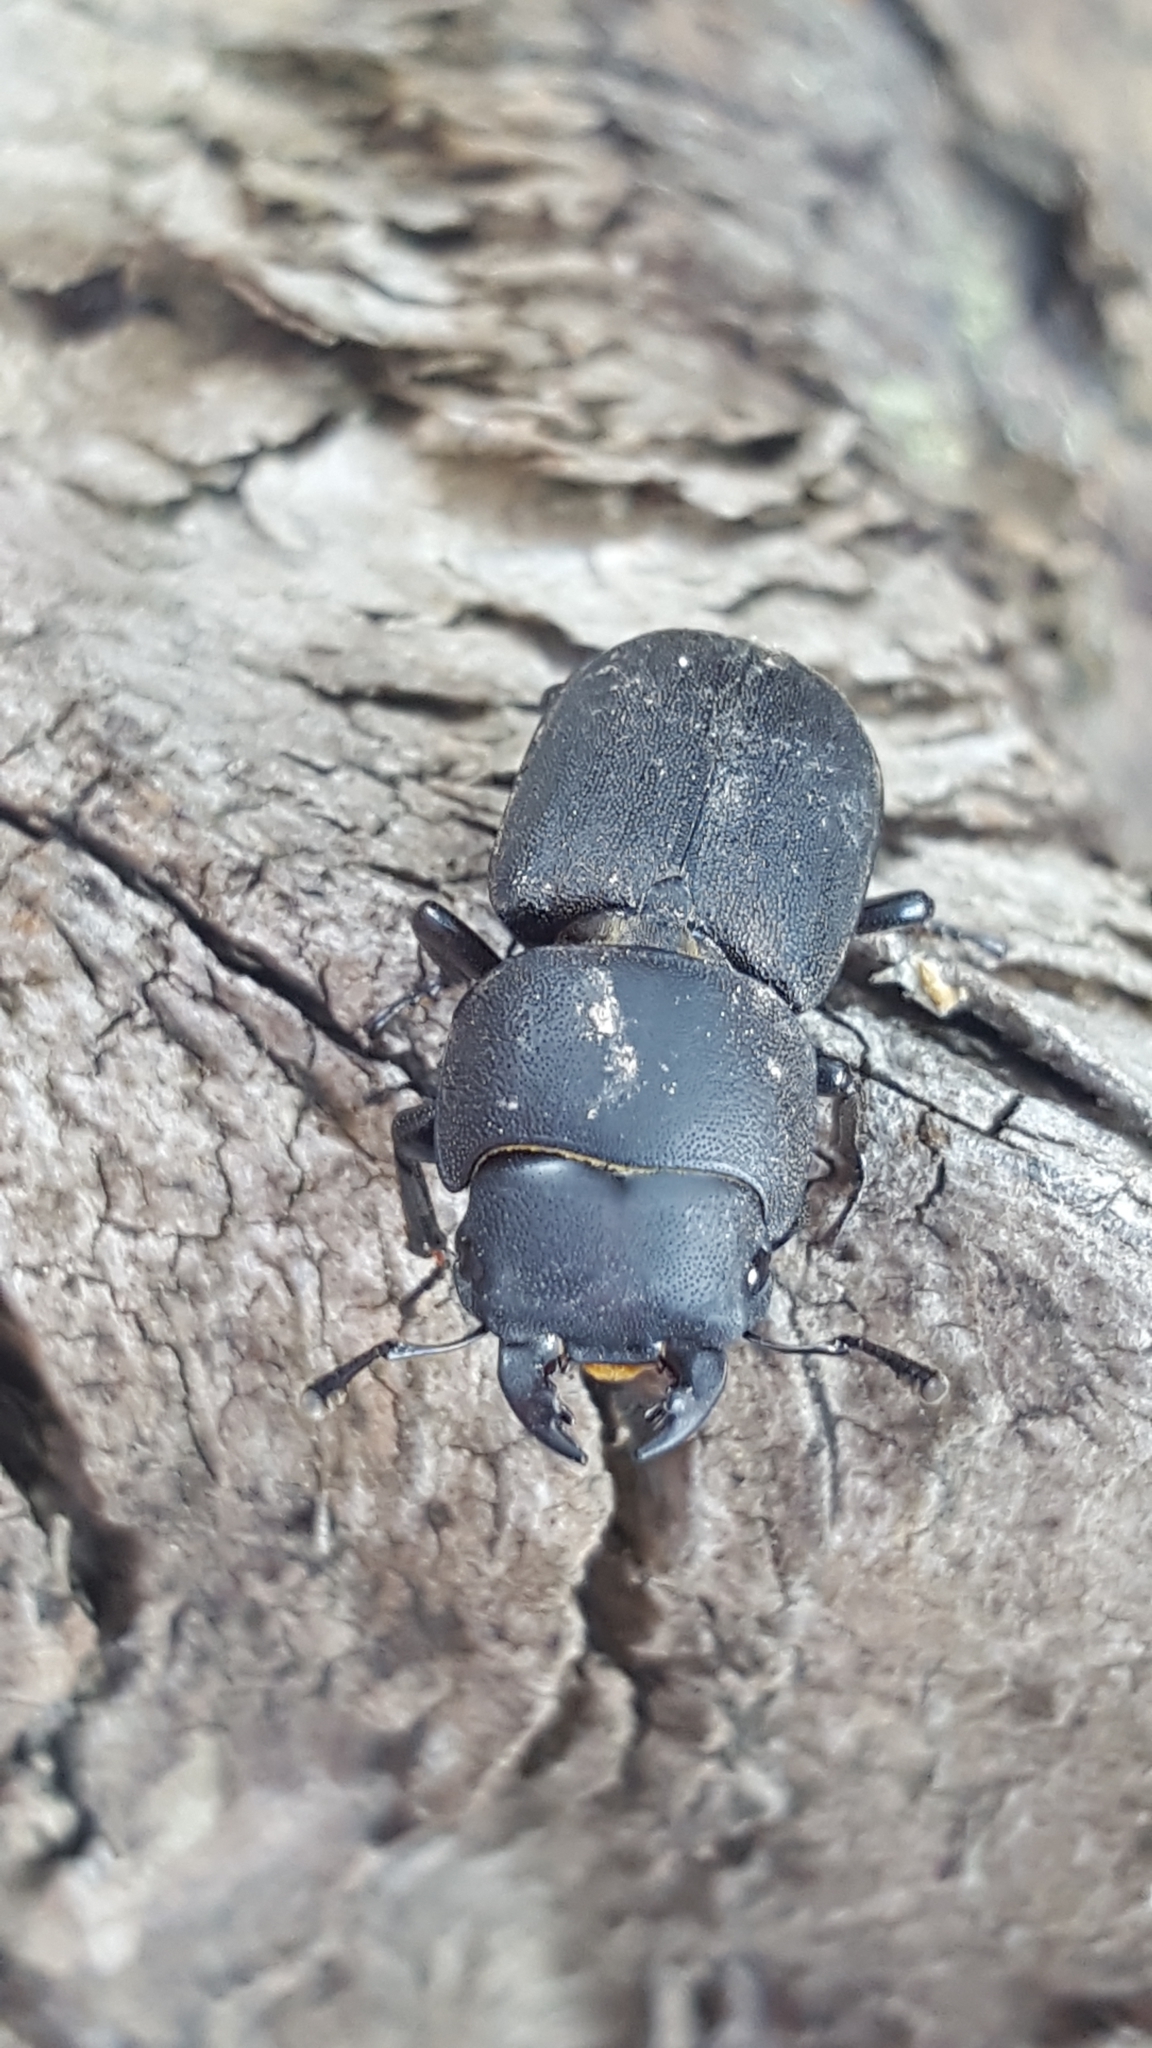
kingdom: Animalia
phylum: Arthropoda
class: Insecta
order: Coleoptera
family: Lucanidae
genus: Dorcus
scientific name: Dorcus parallelipipedus
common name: Lesser stag beetle
